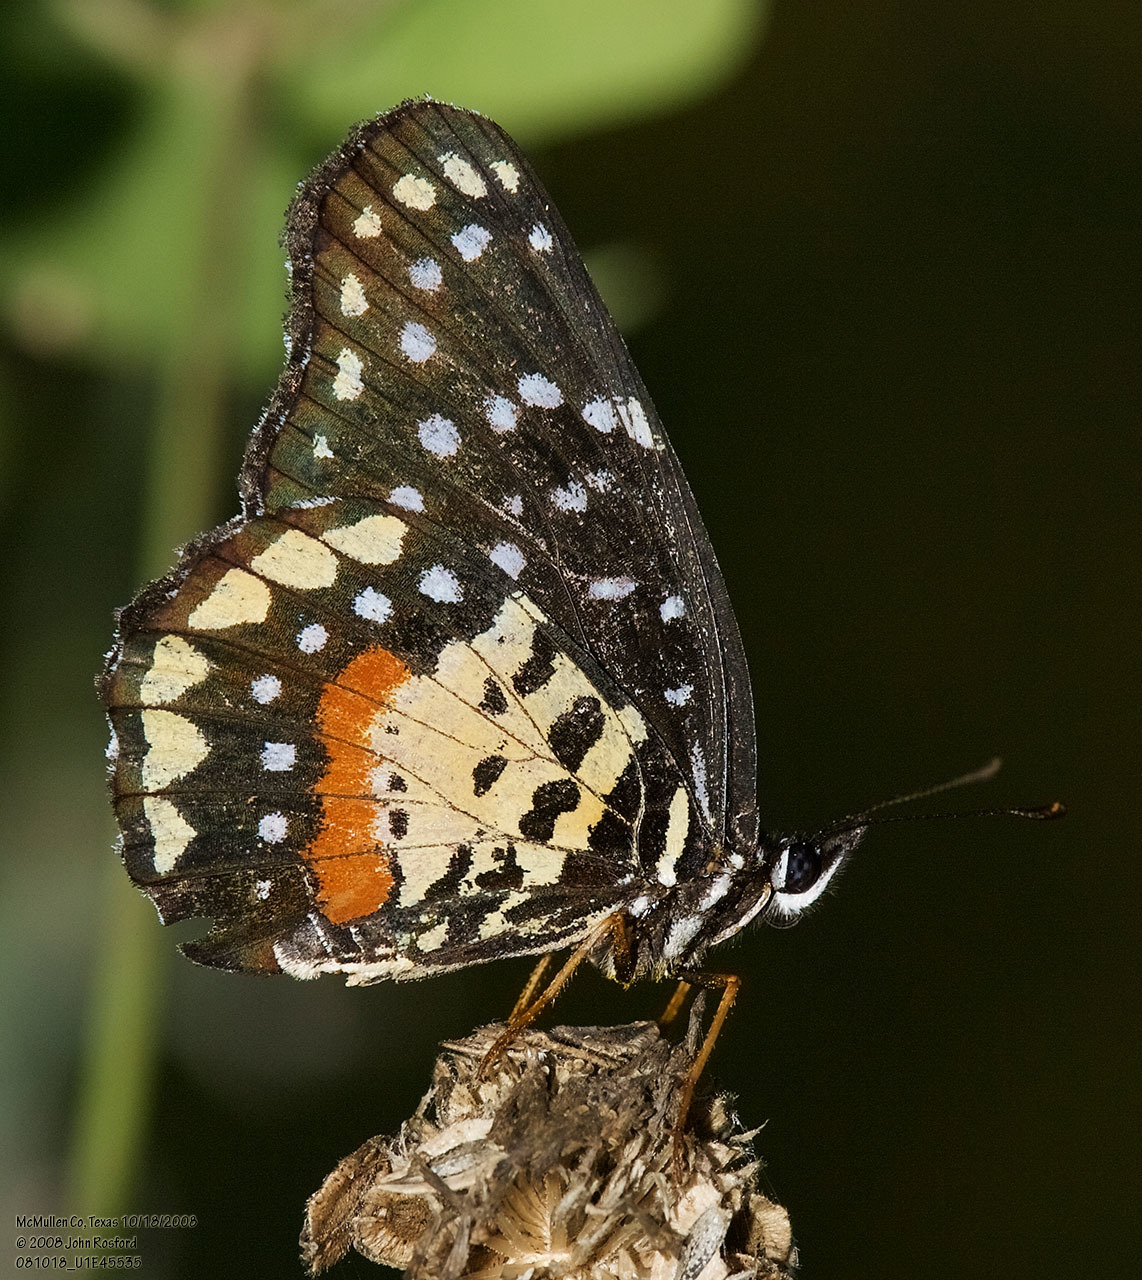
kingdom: Animalia
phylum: Arthropoda
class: Insecta
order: Lepidoptera
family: Nymphalidae
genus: Chlosyne
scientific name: Chlosyne janais
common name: Crimson patch
